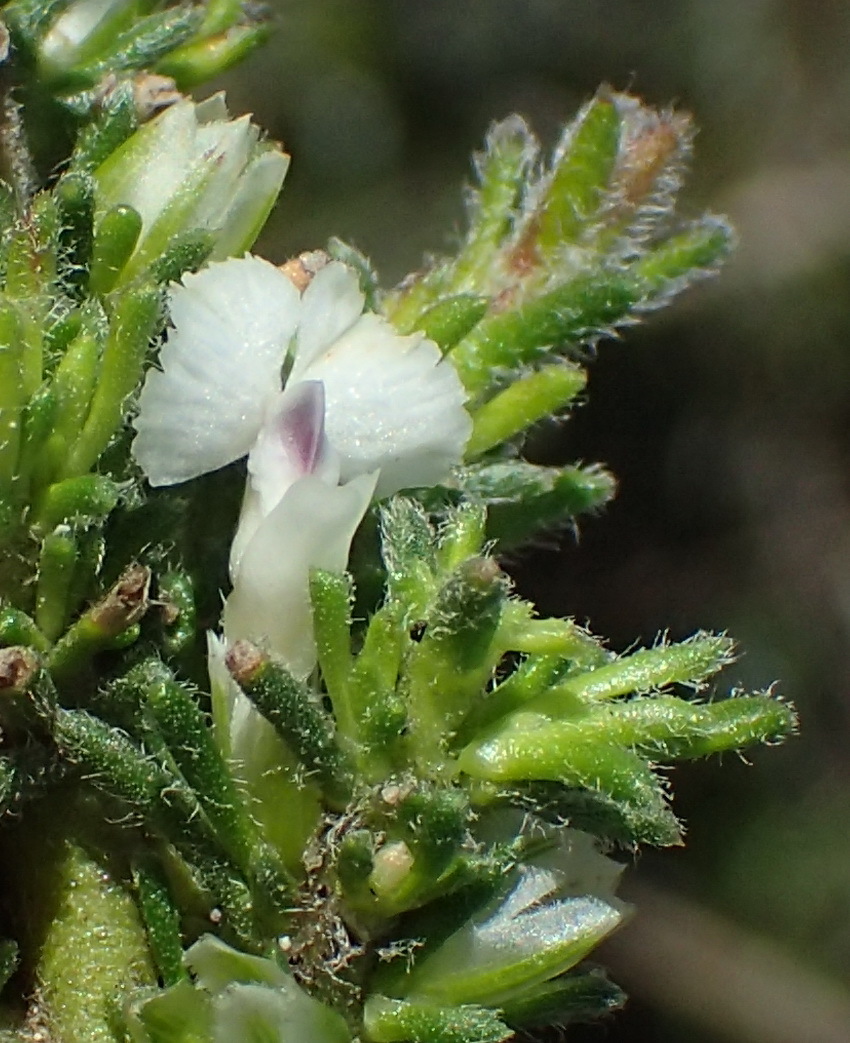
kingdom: Plantae
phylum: Tracheophyta
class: Magnoliopsida
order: Fabales
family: Polygalaceae
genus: Muraltia
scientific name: Muraltia pappeana
